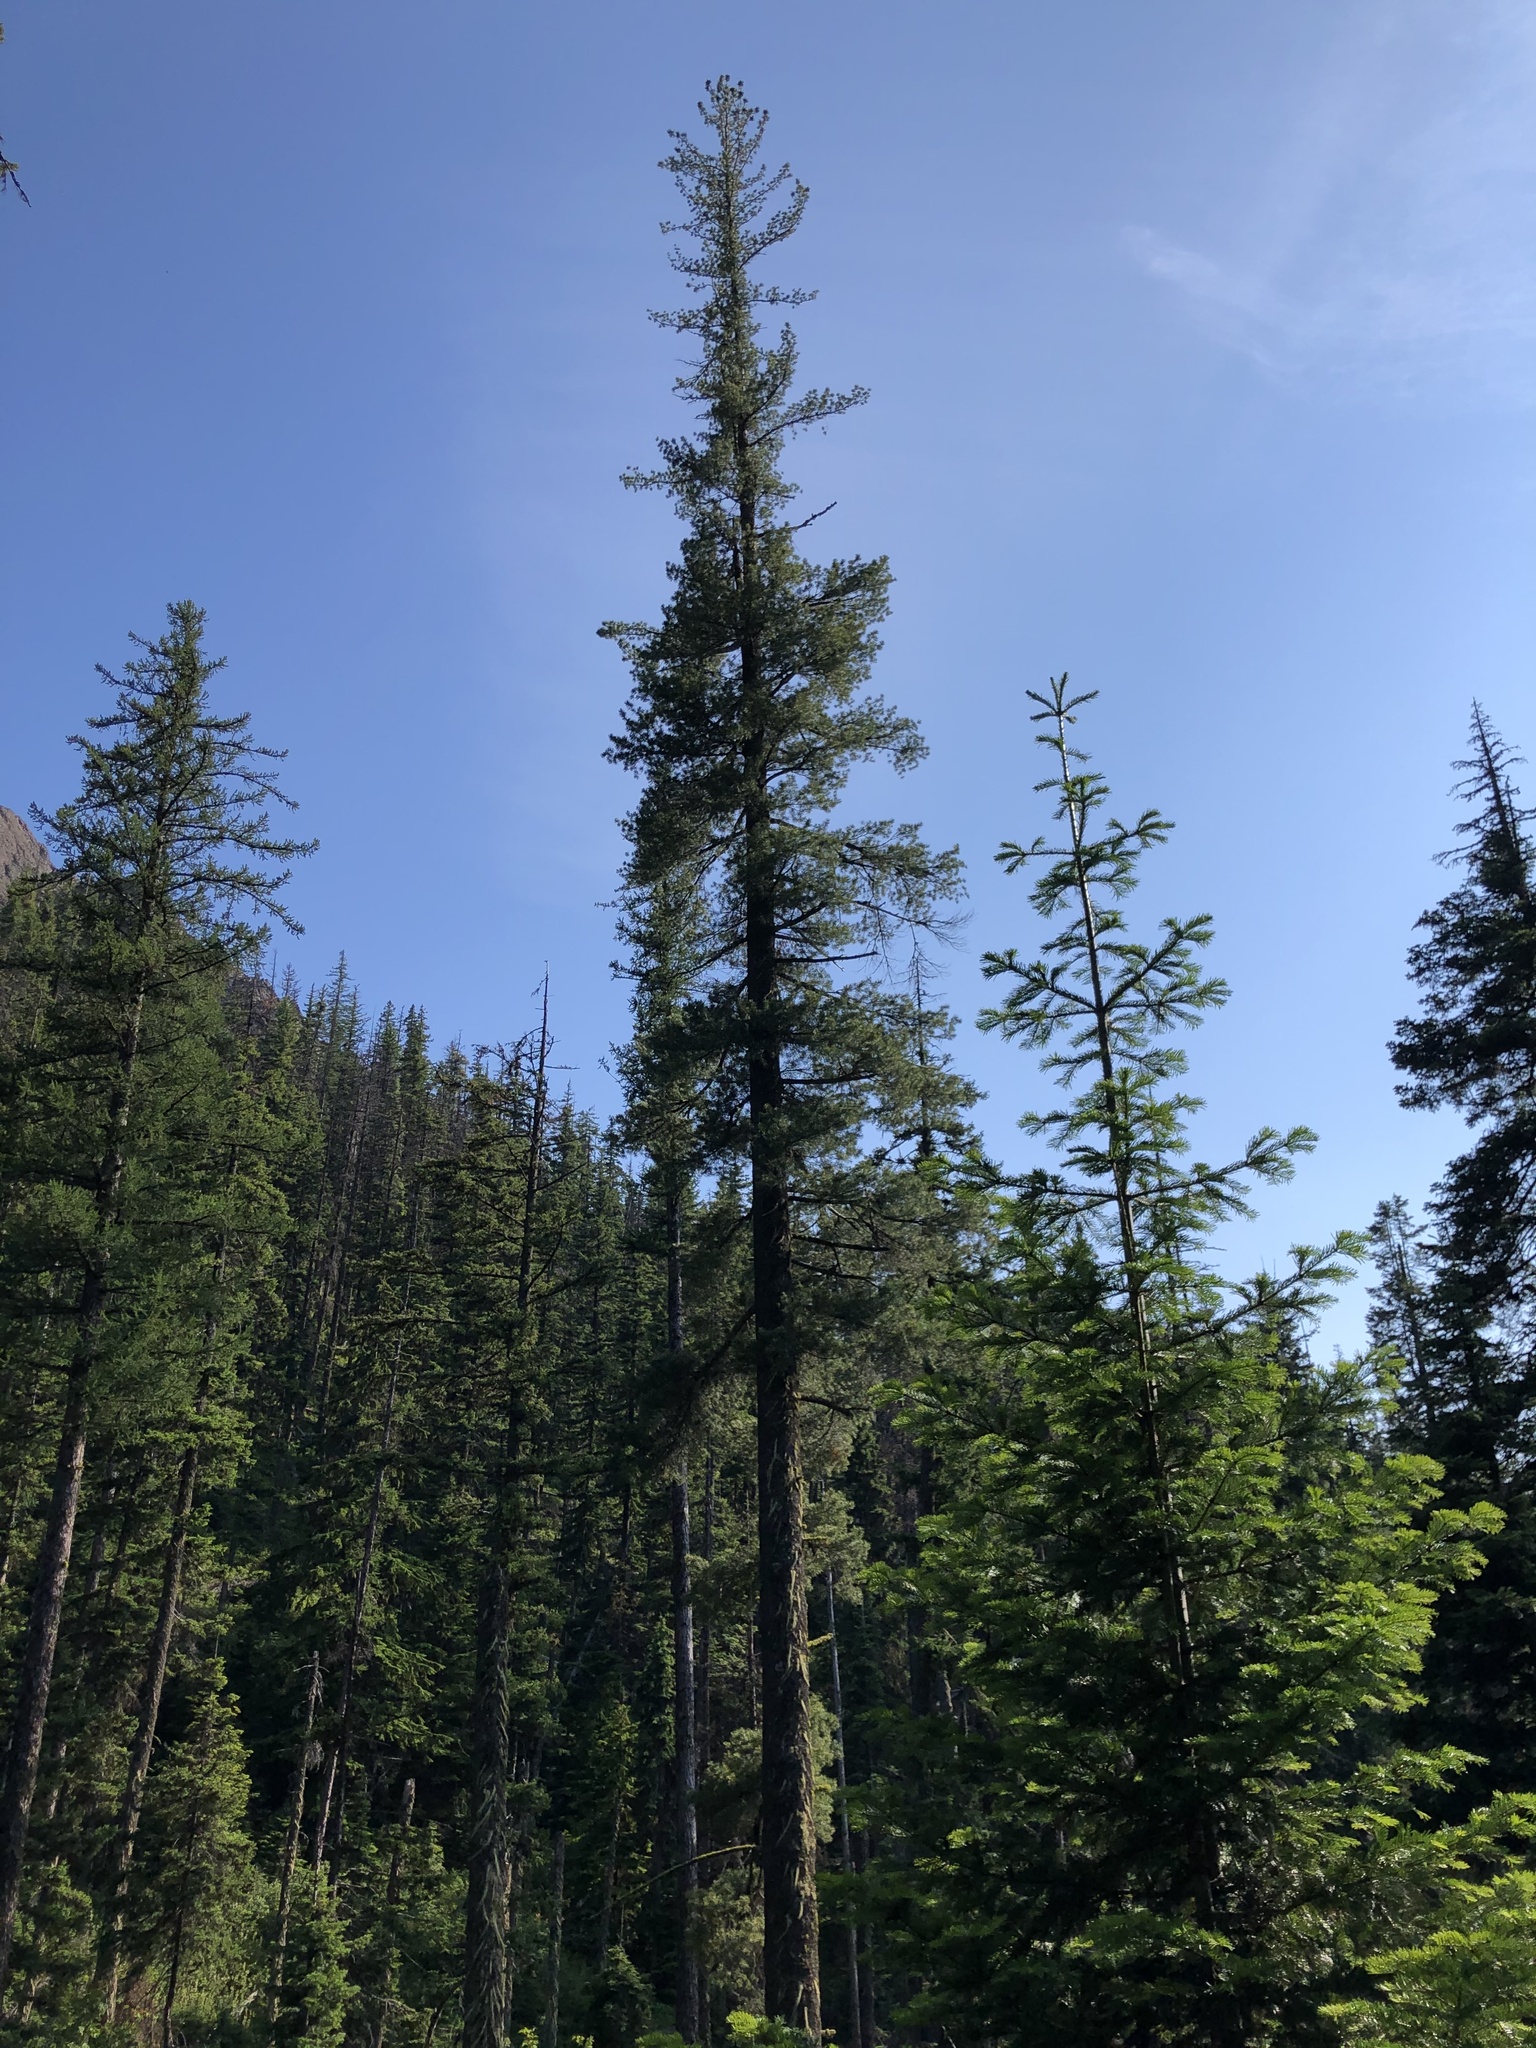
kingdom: Plantae
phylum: Tracheophyta
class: Pinopsida
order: Pinales
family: Pinaceae
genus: Pinus
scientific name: Pinus monticola
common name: Western white pine
